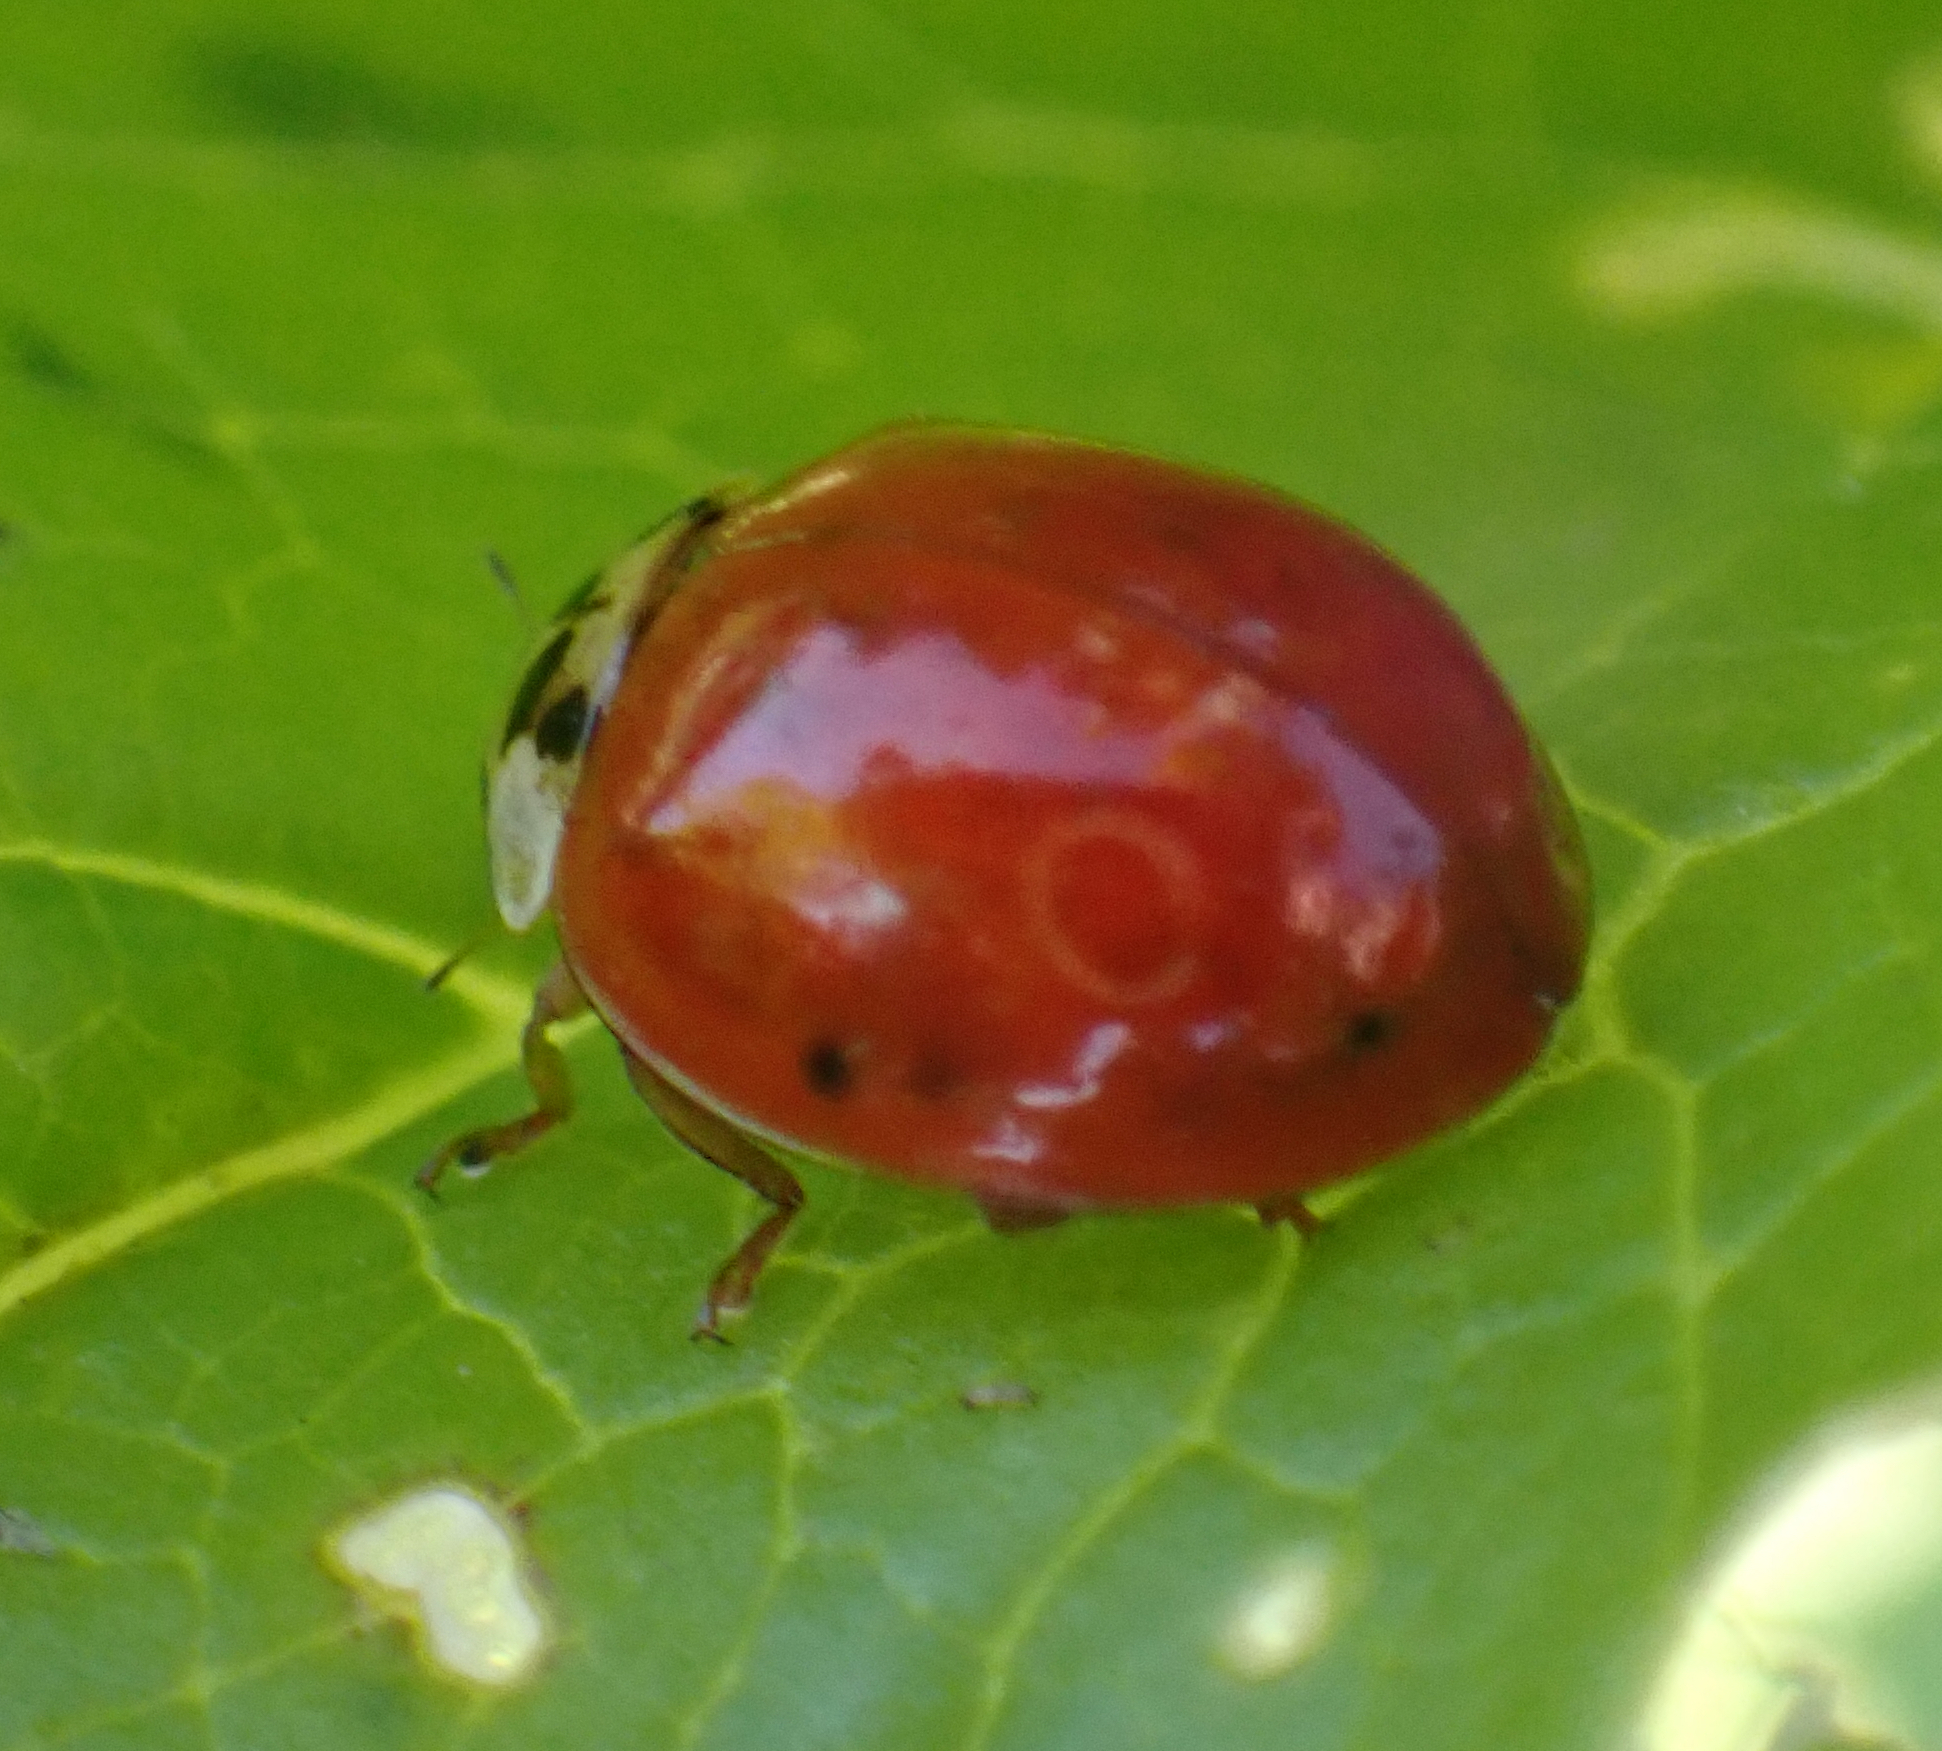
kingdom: Animalia
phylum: Arthropoda
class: Insecta
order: Coleoptera
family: Coccinellidae
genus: Harmonia
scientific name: Harmonia axyridis
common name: Harlequin ladybird
